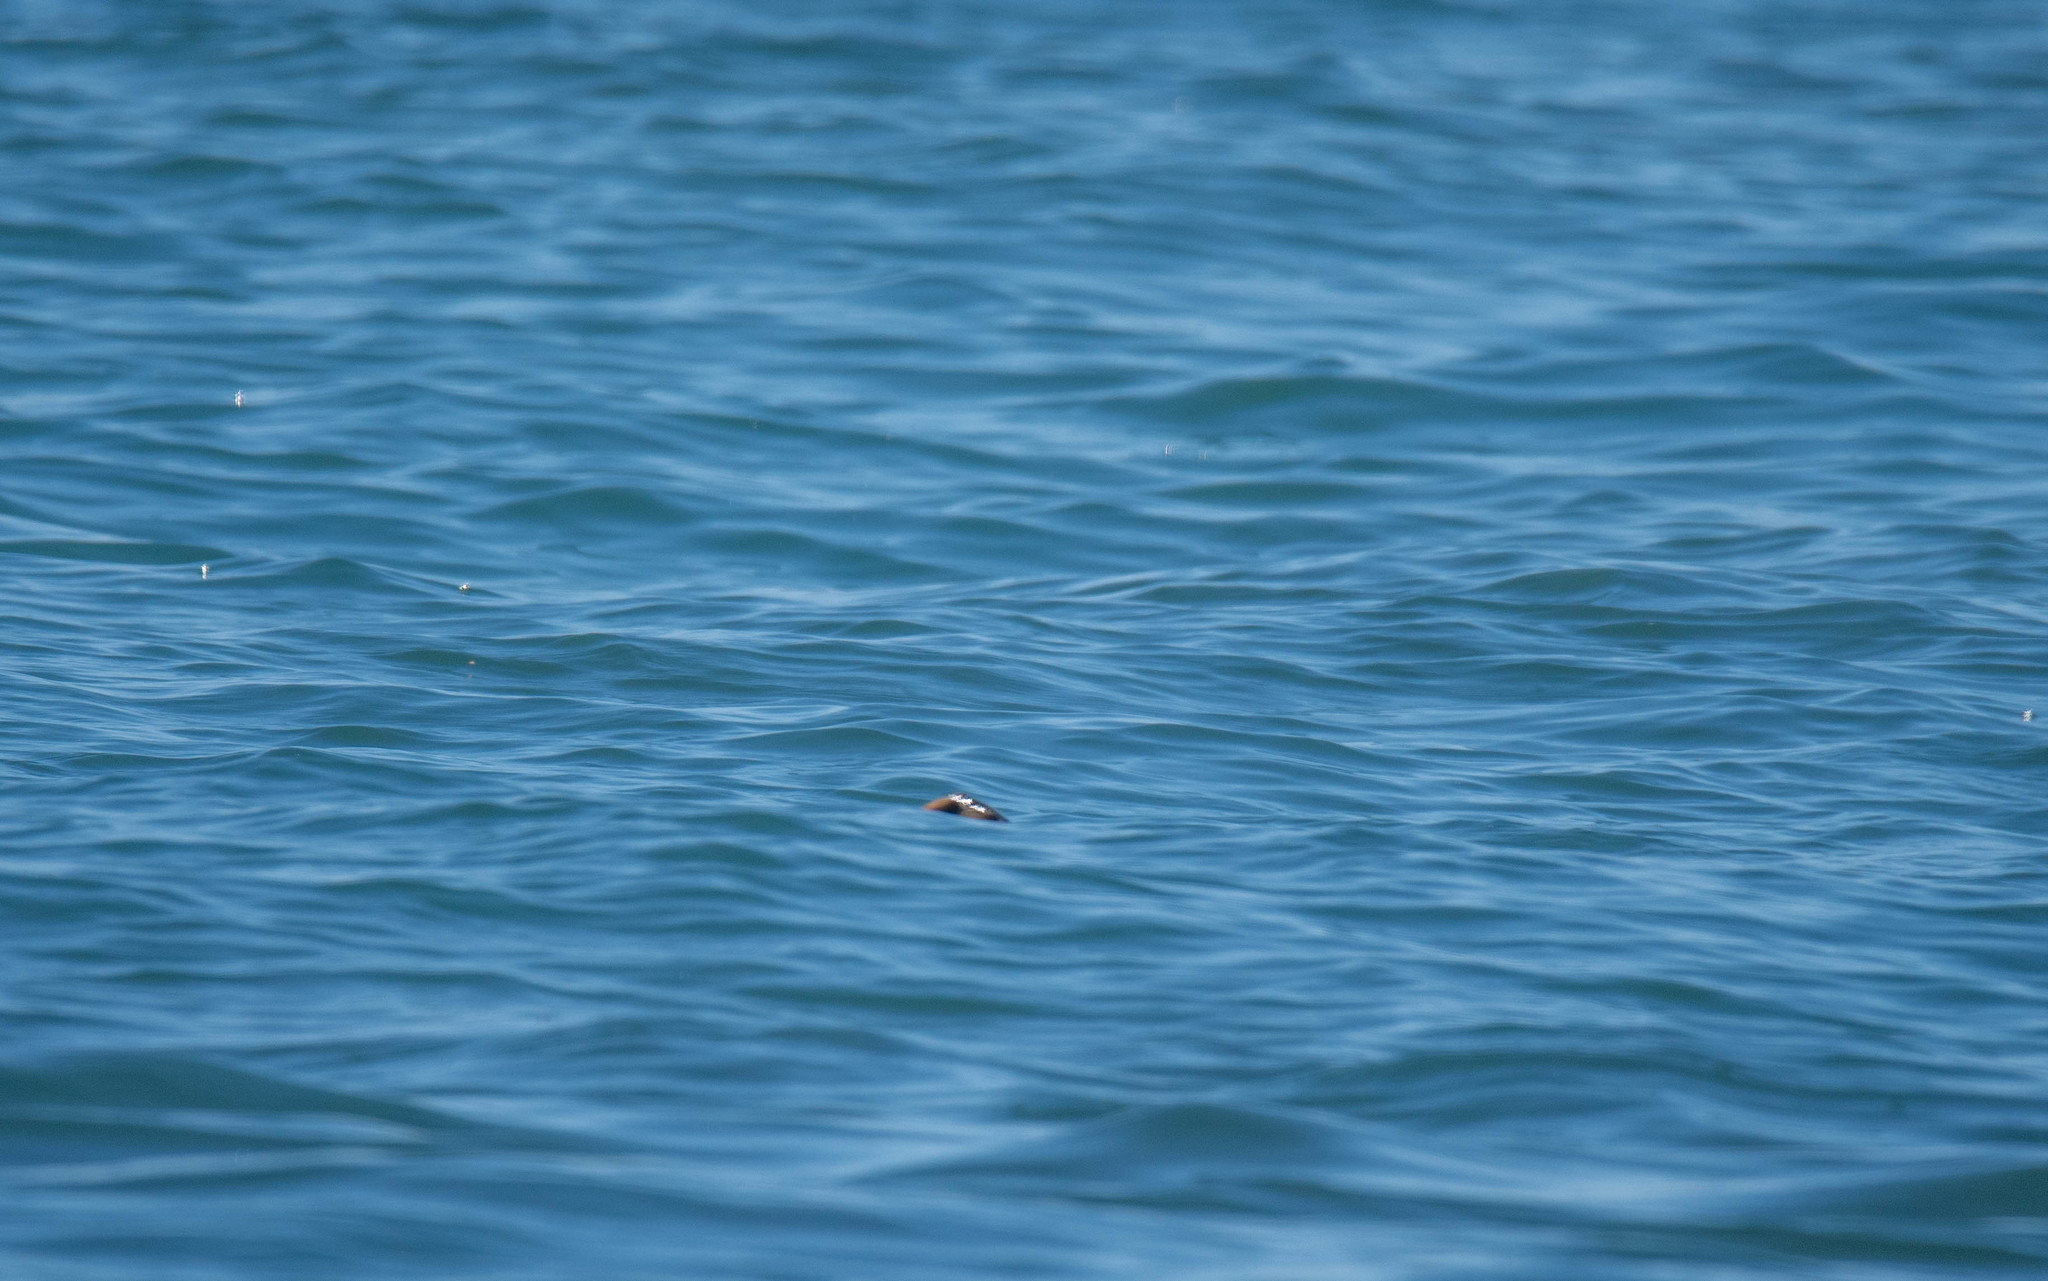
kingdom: Animalia
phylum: Chordata
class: Testudines
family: Cheloniidae
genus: Chelonia
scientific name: Chelonia mydas
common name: Green turtle
